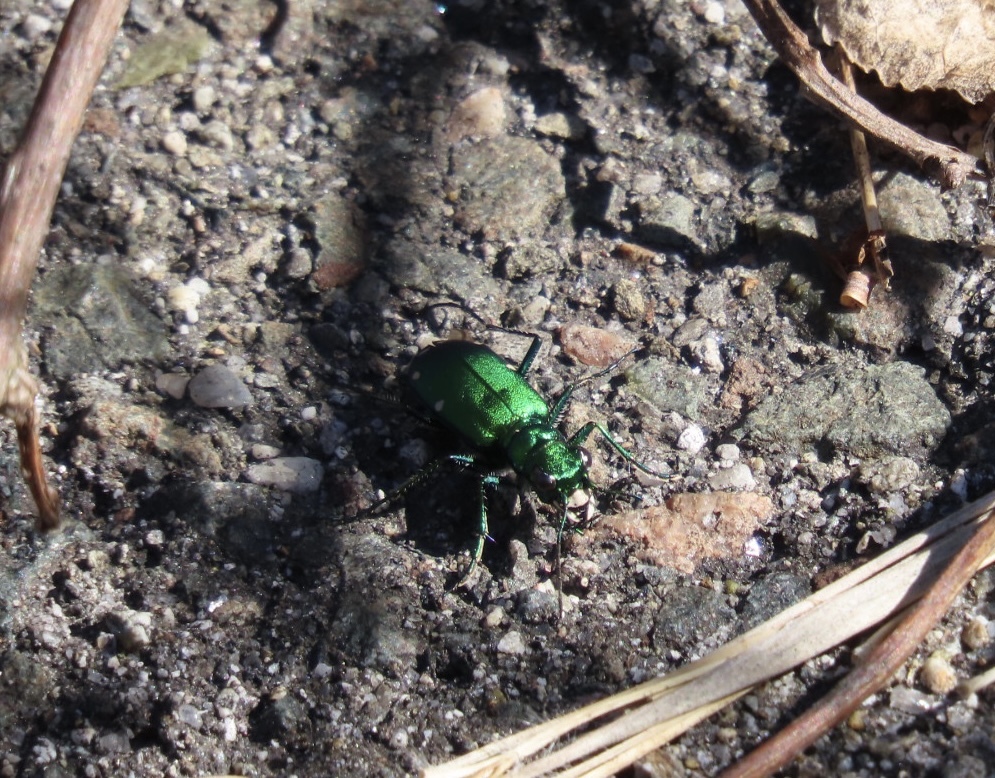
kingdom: Animalia
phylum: Arthropoda
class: Insecta
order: Coleoptera
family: Carabidae
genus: Cicindela
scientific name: Cicindela sexguttata
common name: Six-spotted tiger beetle
